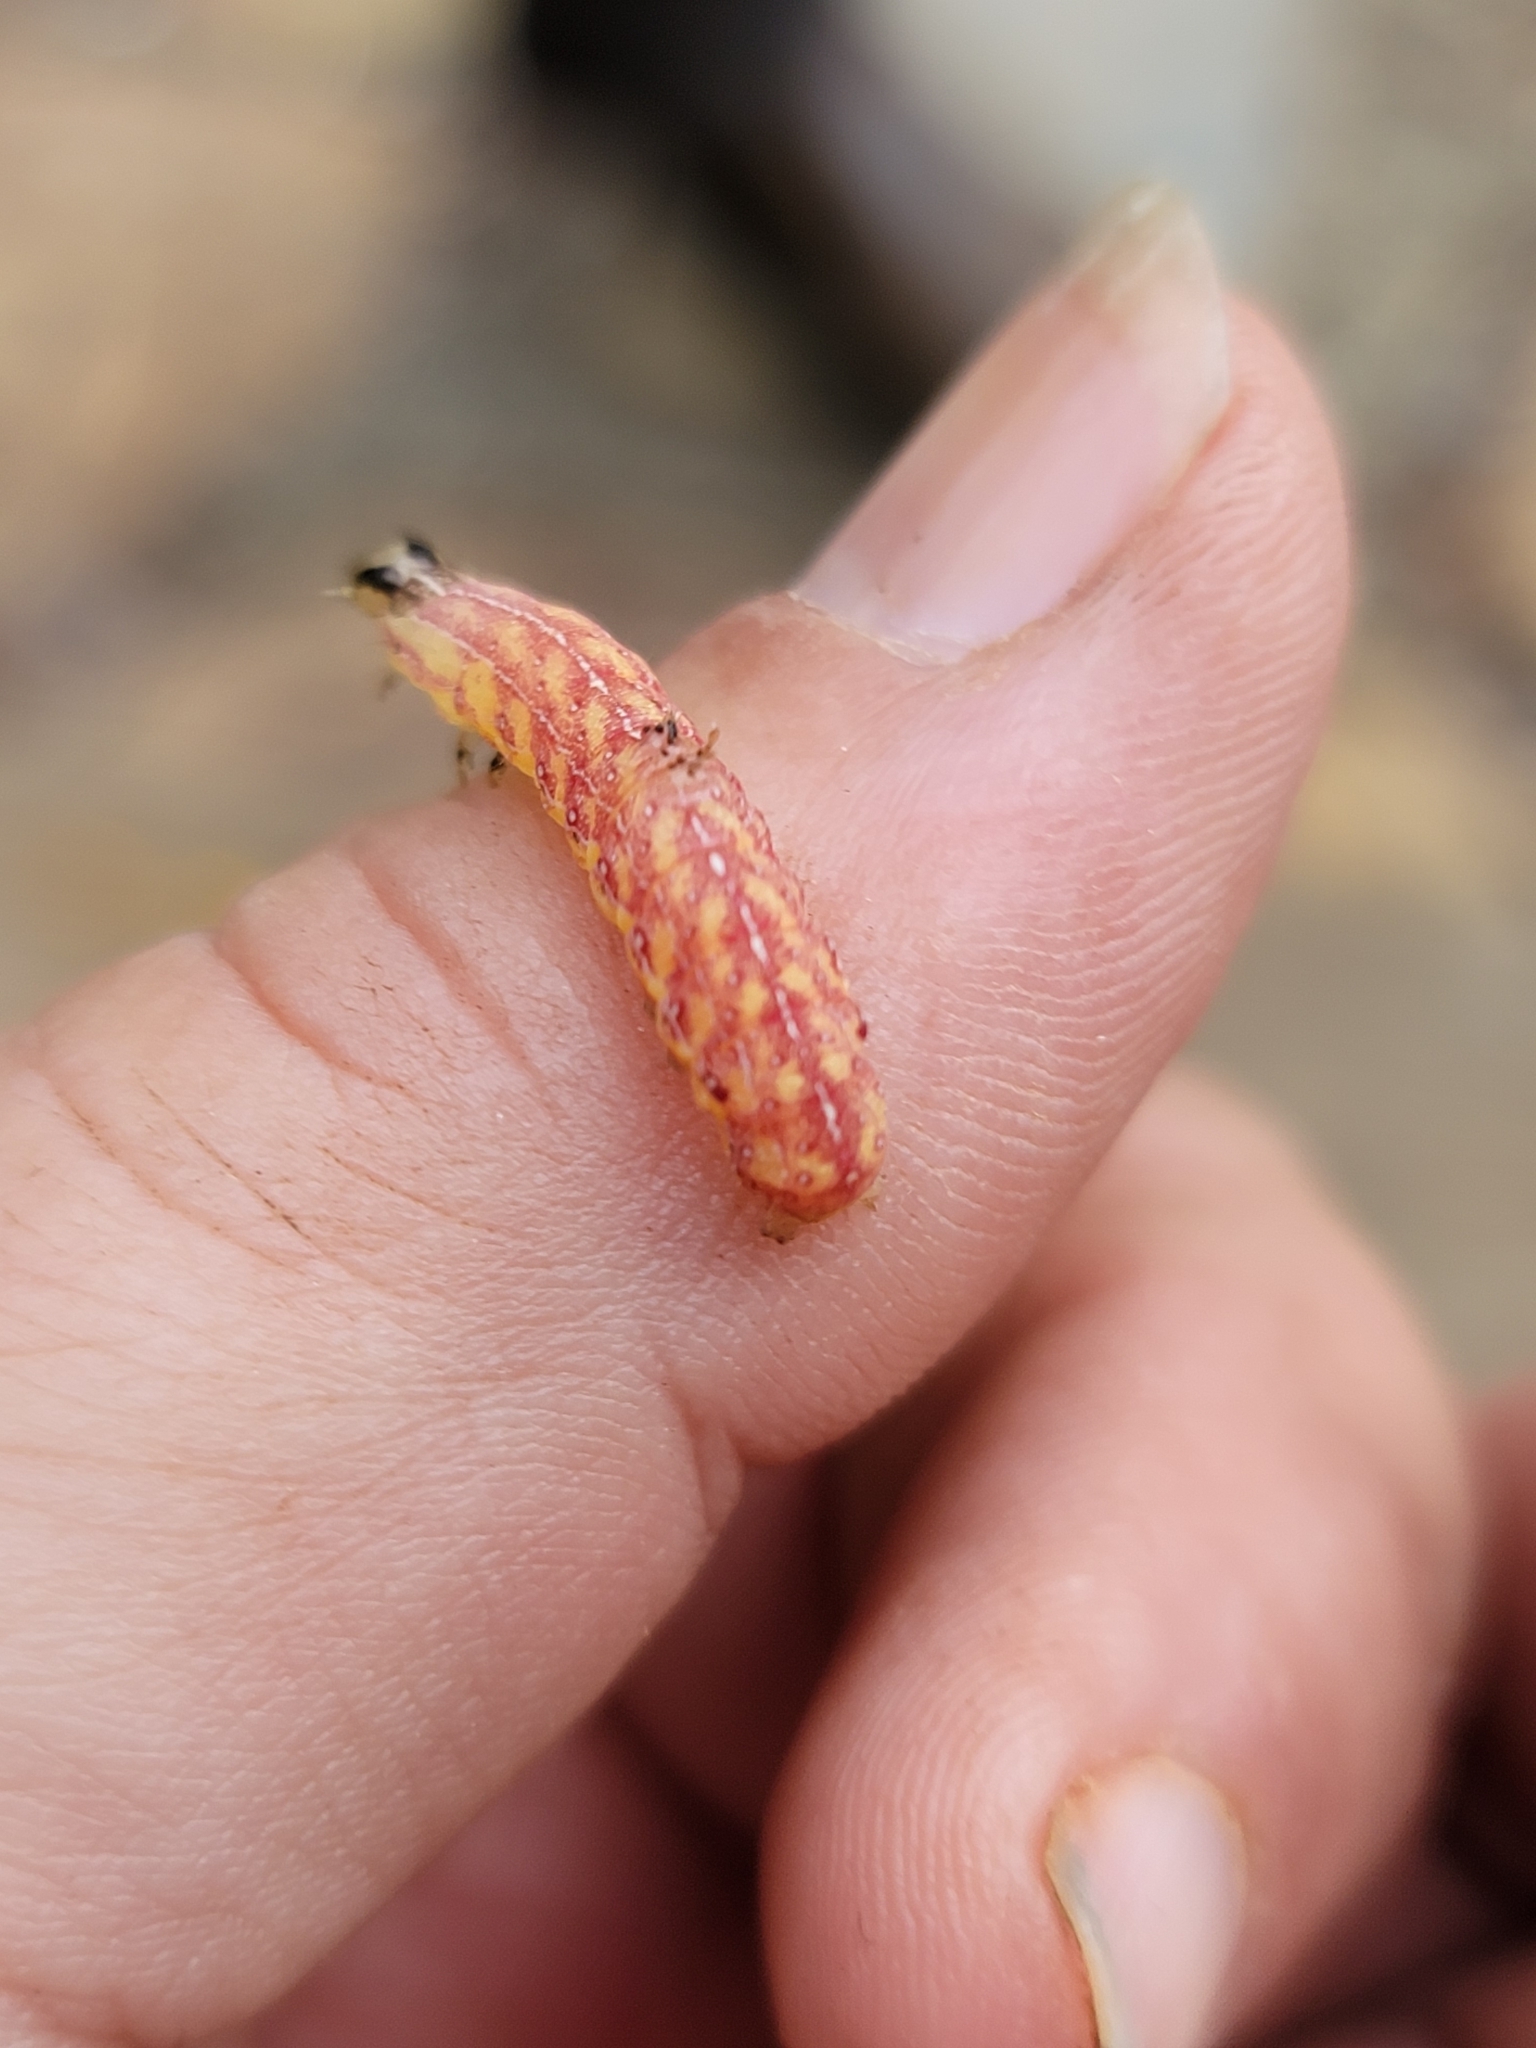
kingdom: Animalia
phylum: Arthropoda
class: Insecta
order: Lepidoptera
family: Noctuidae
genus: Condica
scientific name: Condica sutor
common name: Cobbler moth
